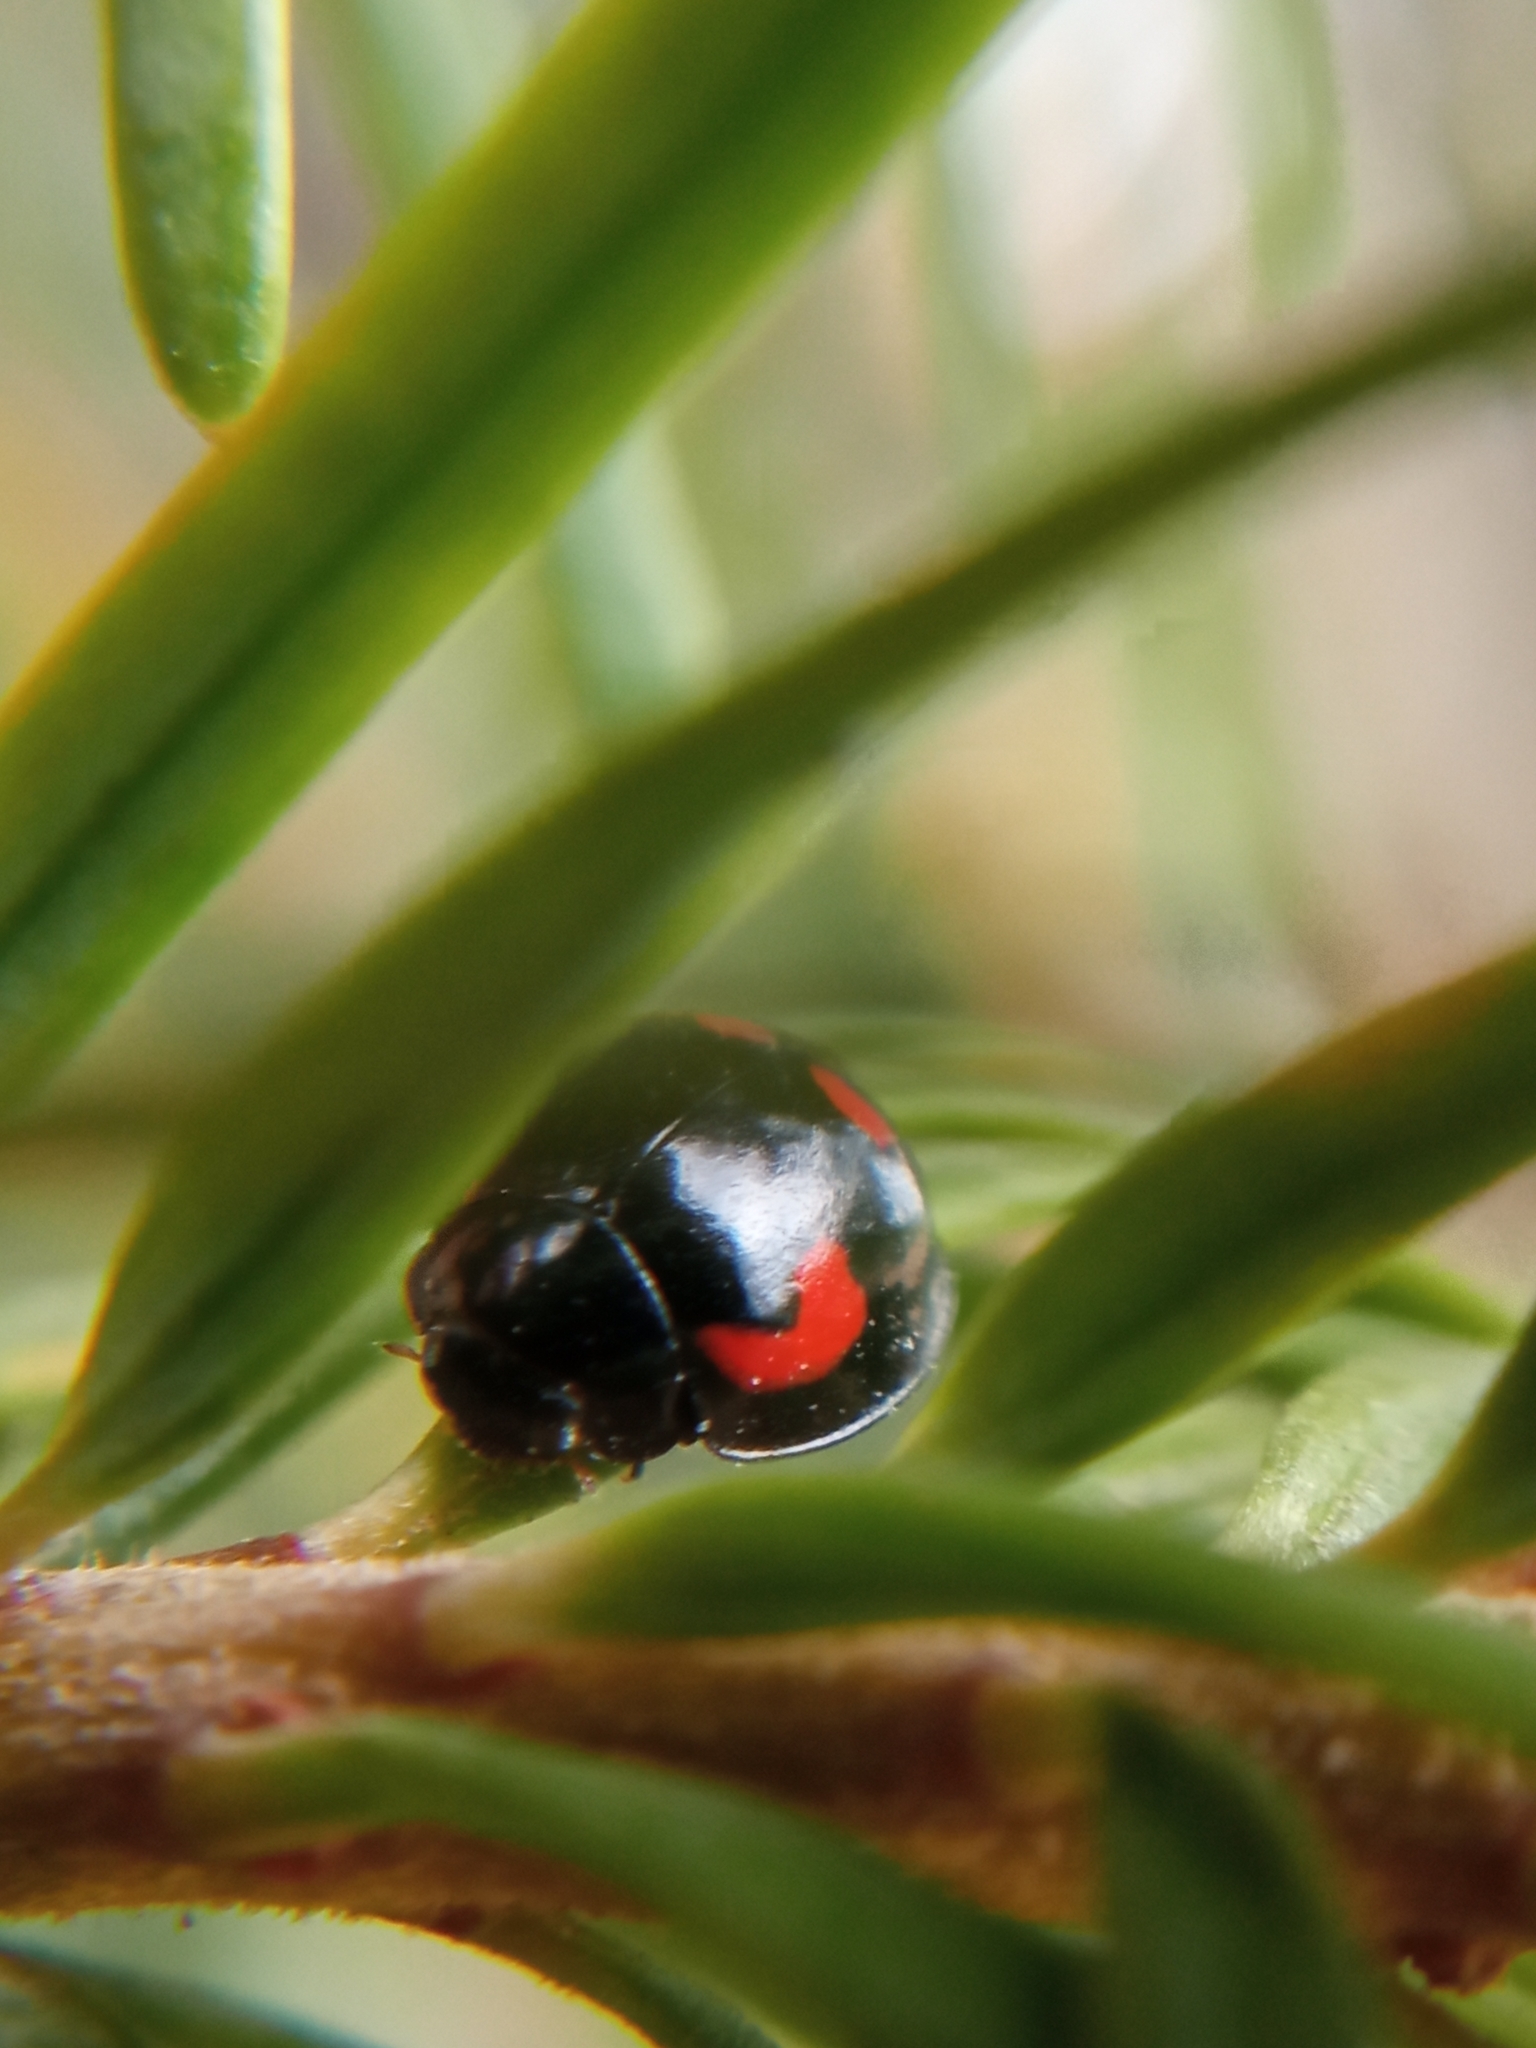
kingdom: Animalia
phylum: Arthropoda
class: Insecta
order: Coleoptera
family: Coccinellidae
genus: Brumus
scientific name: Brumus quadripustulatus
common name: Ladybird beetle
